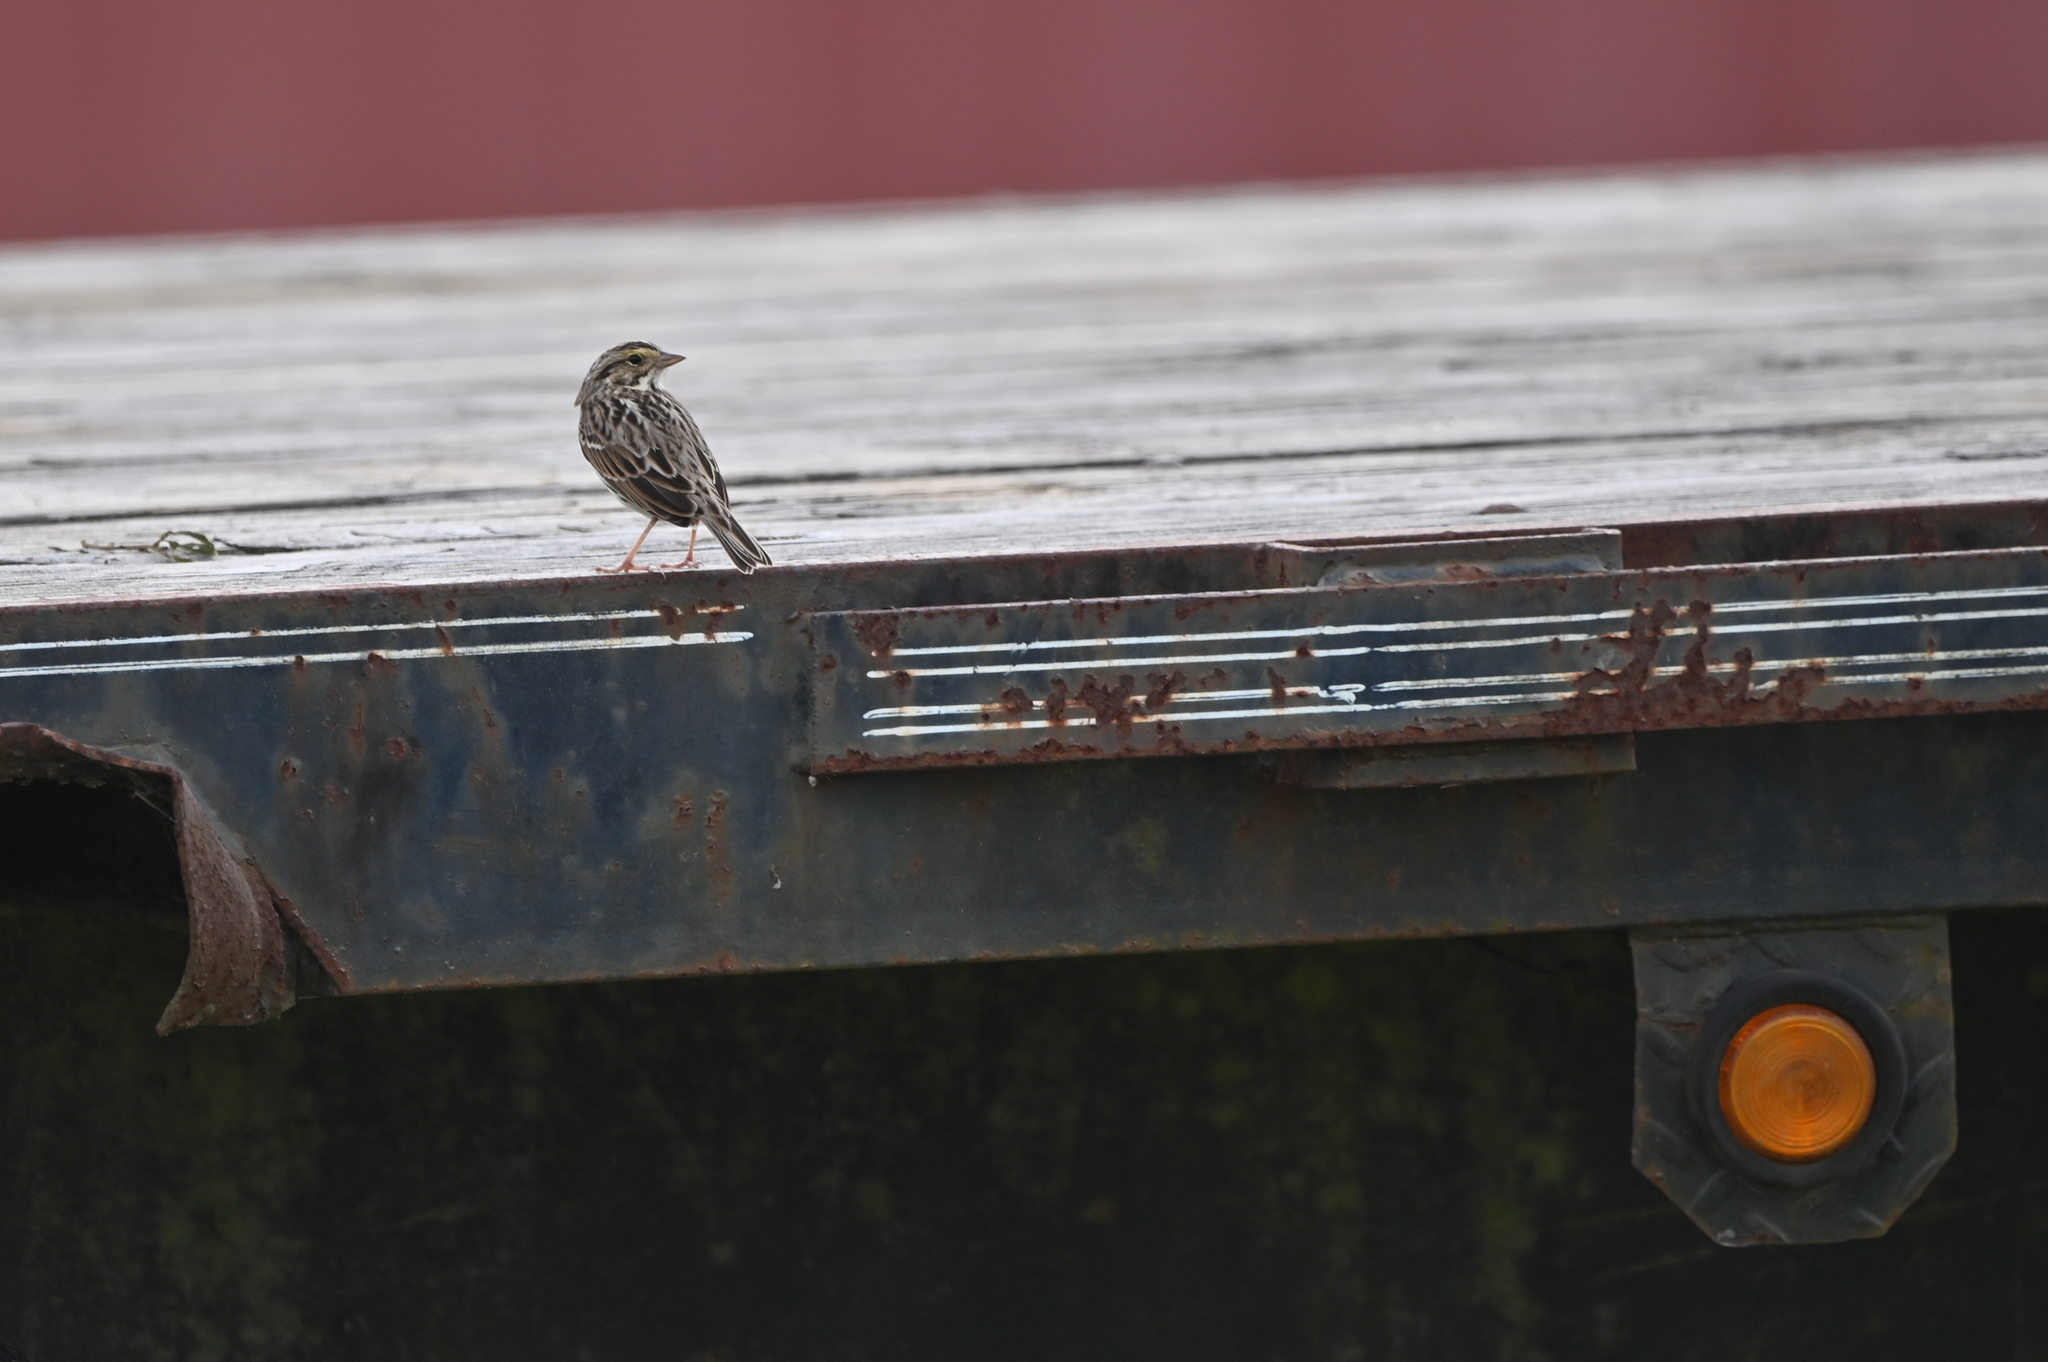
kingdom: Animalia
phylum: Chordata
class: Aves
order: Passeriformes
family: Passerellidae
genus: Passerculus
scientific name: Passerculus sandwichensis
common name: Savannah sparrow
